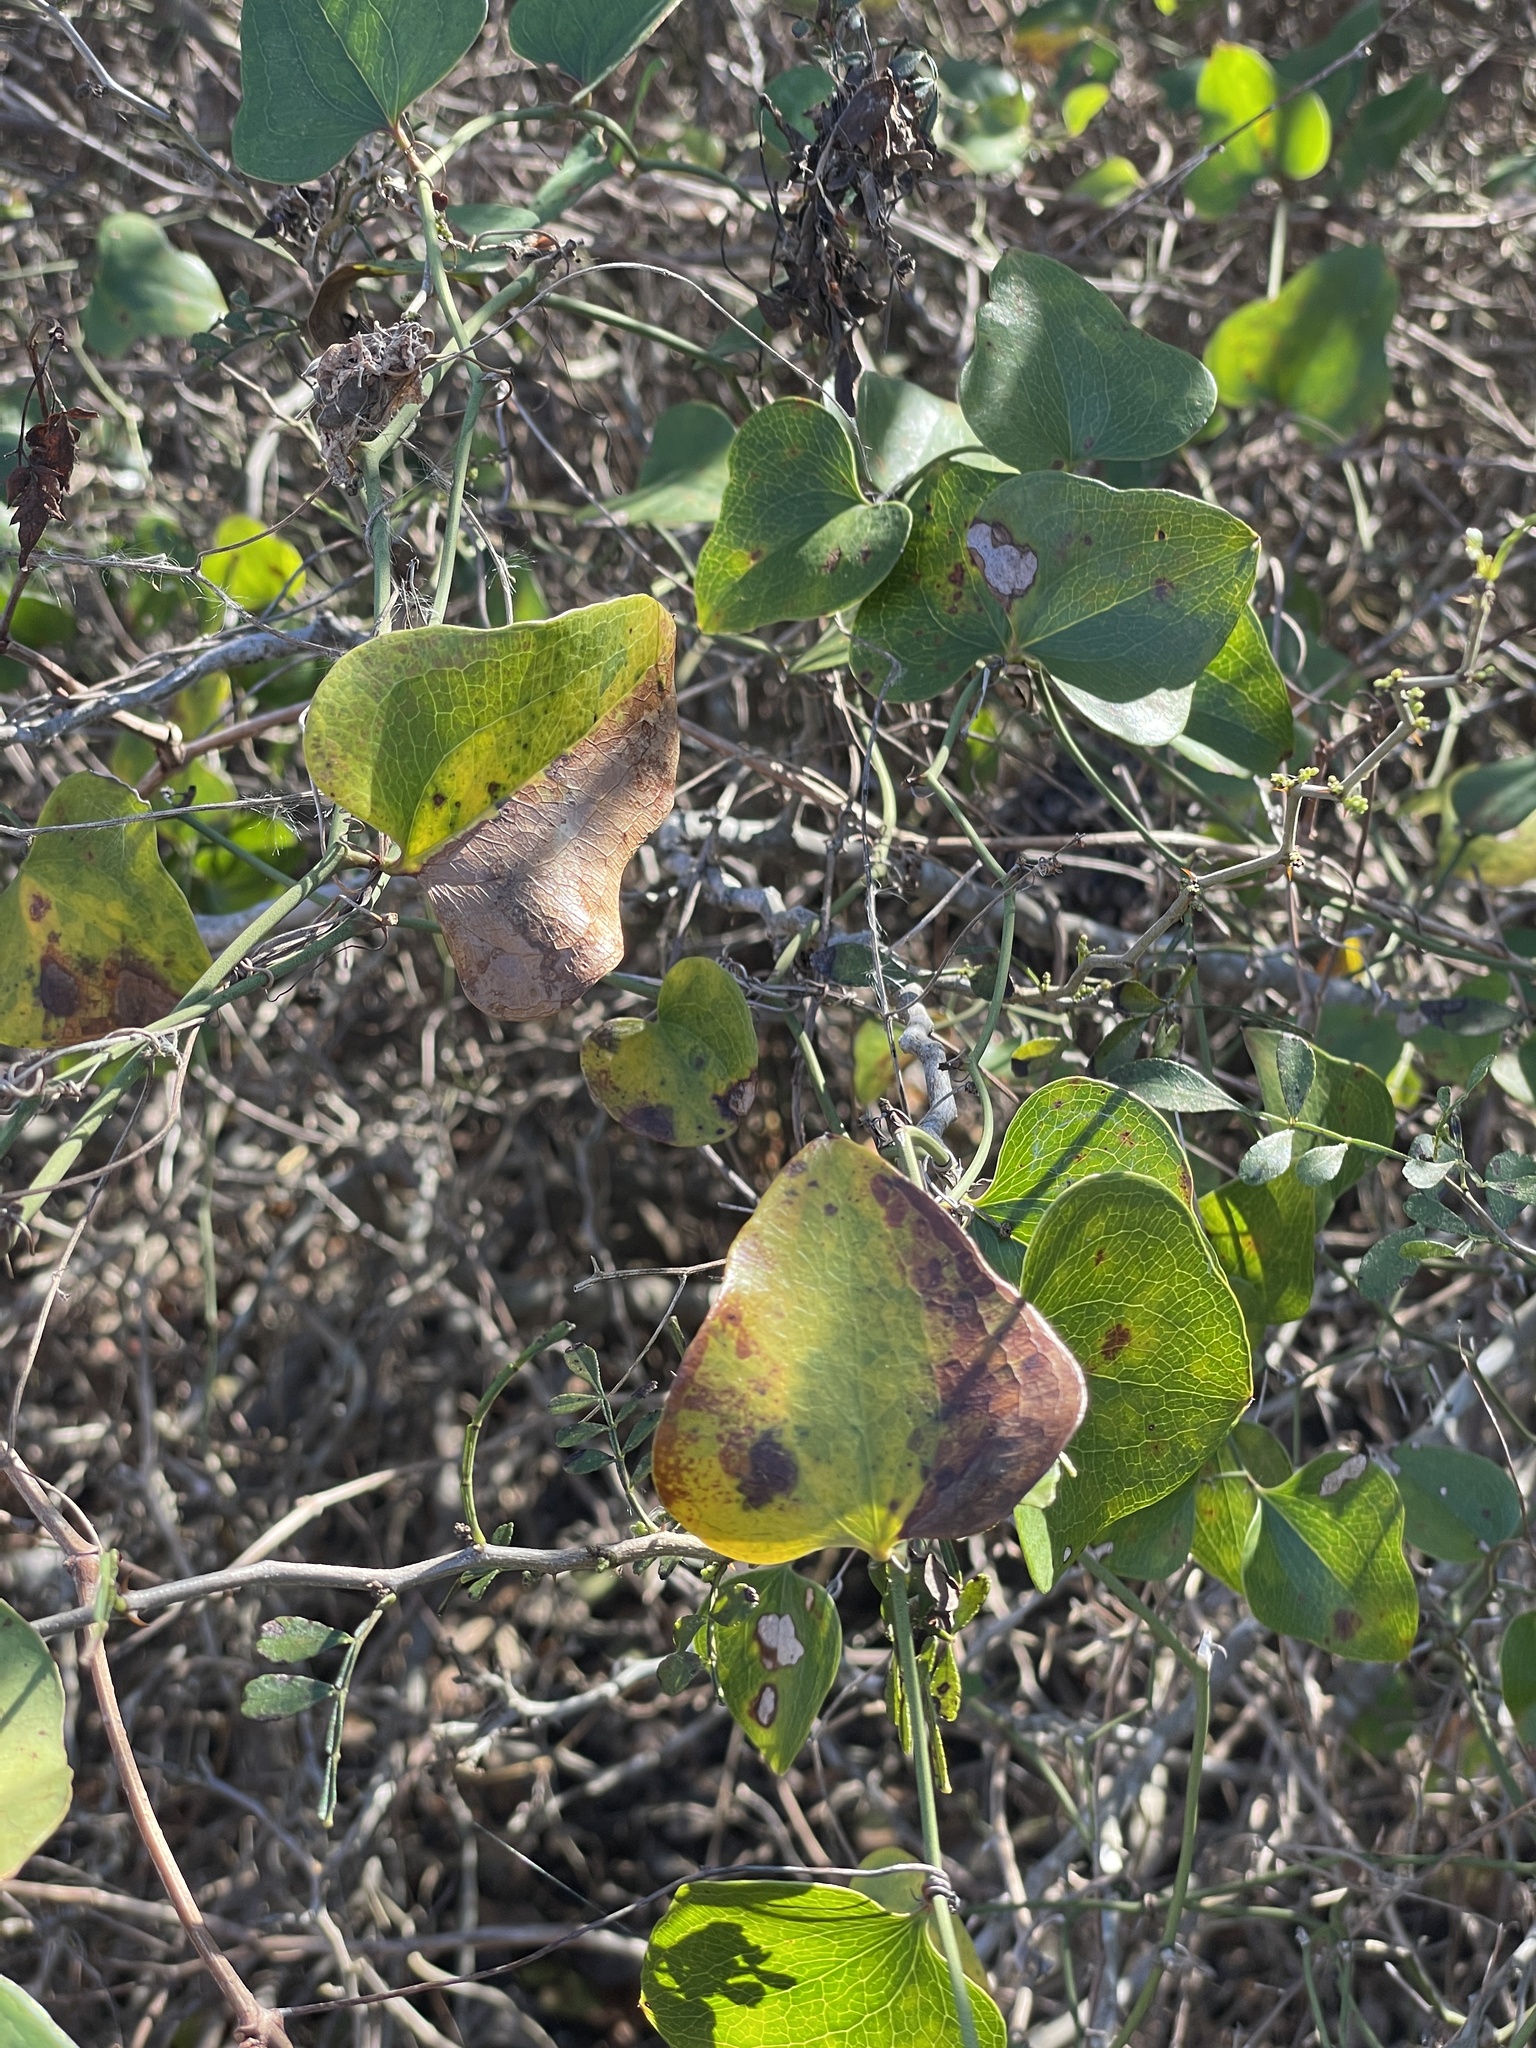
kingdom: Plantae
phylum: Tracheophyta
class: Liliopsida
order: Liliales
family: Smilacaceae
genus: Smilax
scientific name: Smilax bona-nox
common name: Catbrier
